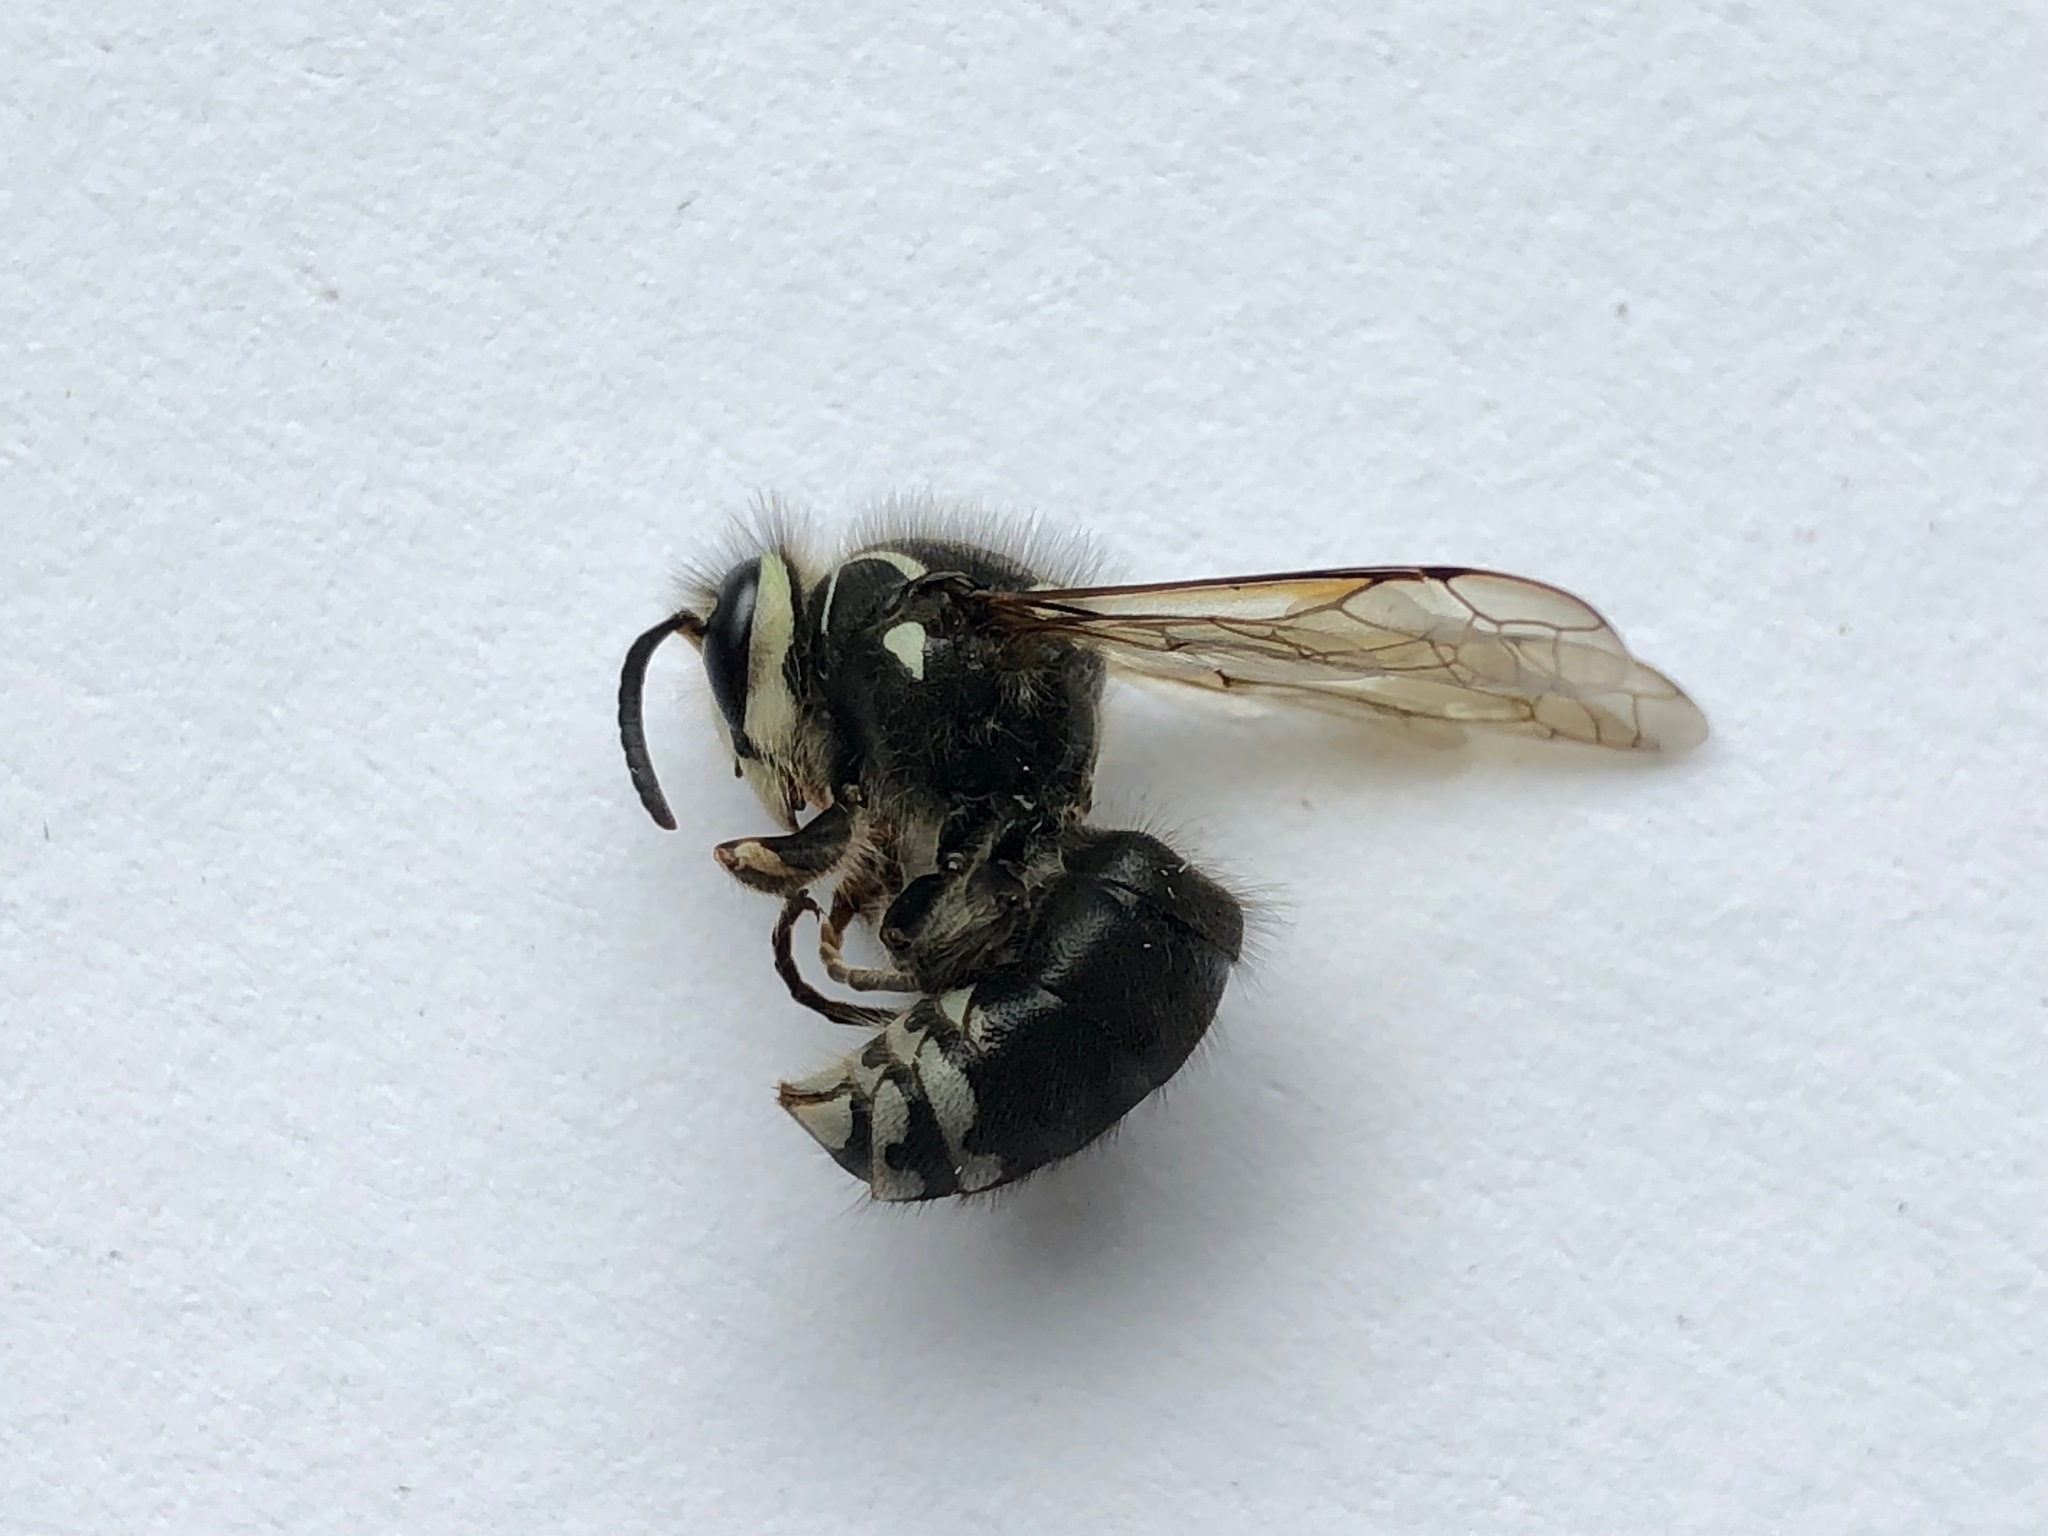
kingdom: Animalia
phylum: Arthropoda
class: Insecta
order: Hymenoptera
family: Vespidae
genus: Dolichovespula
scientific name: Dolichovespula maculata
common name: Bald-faced hornet
